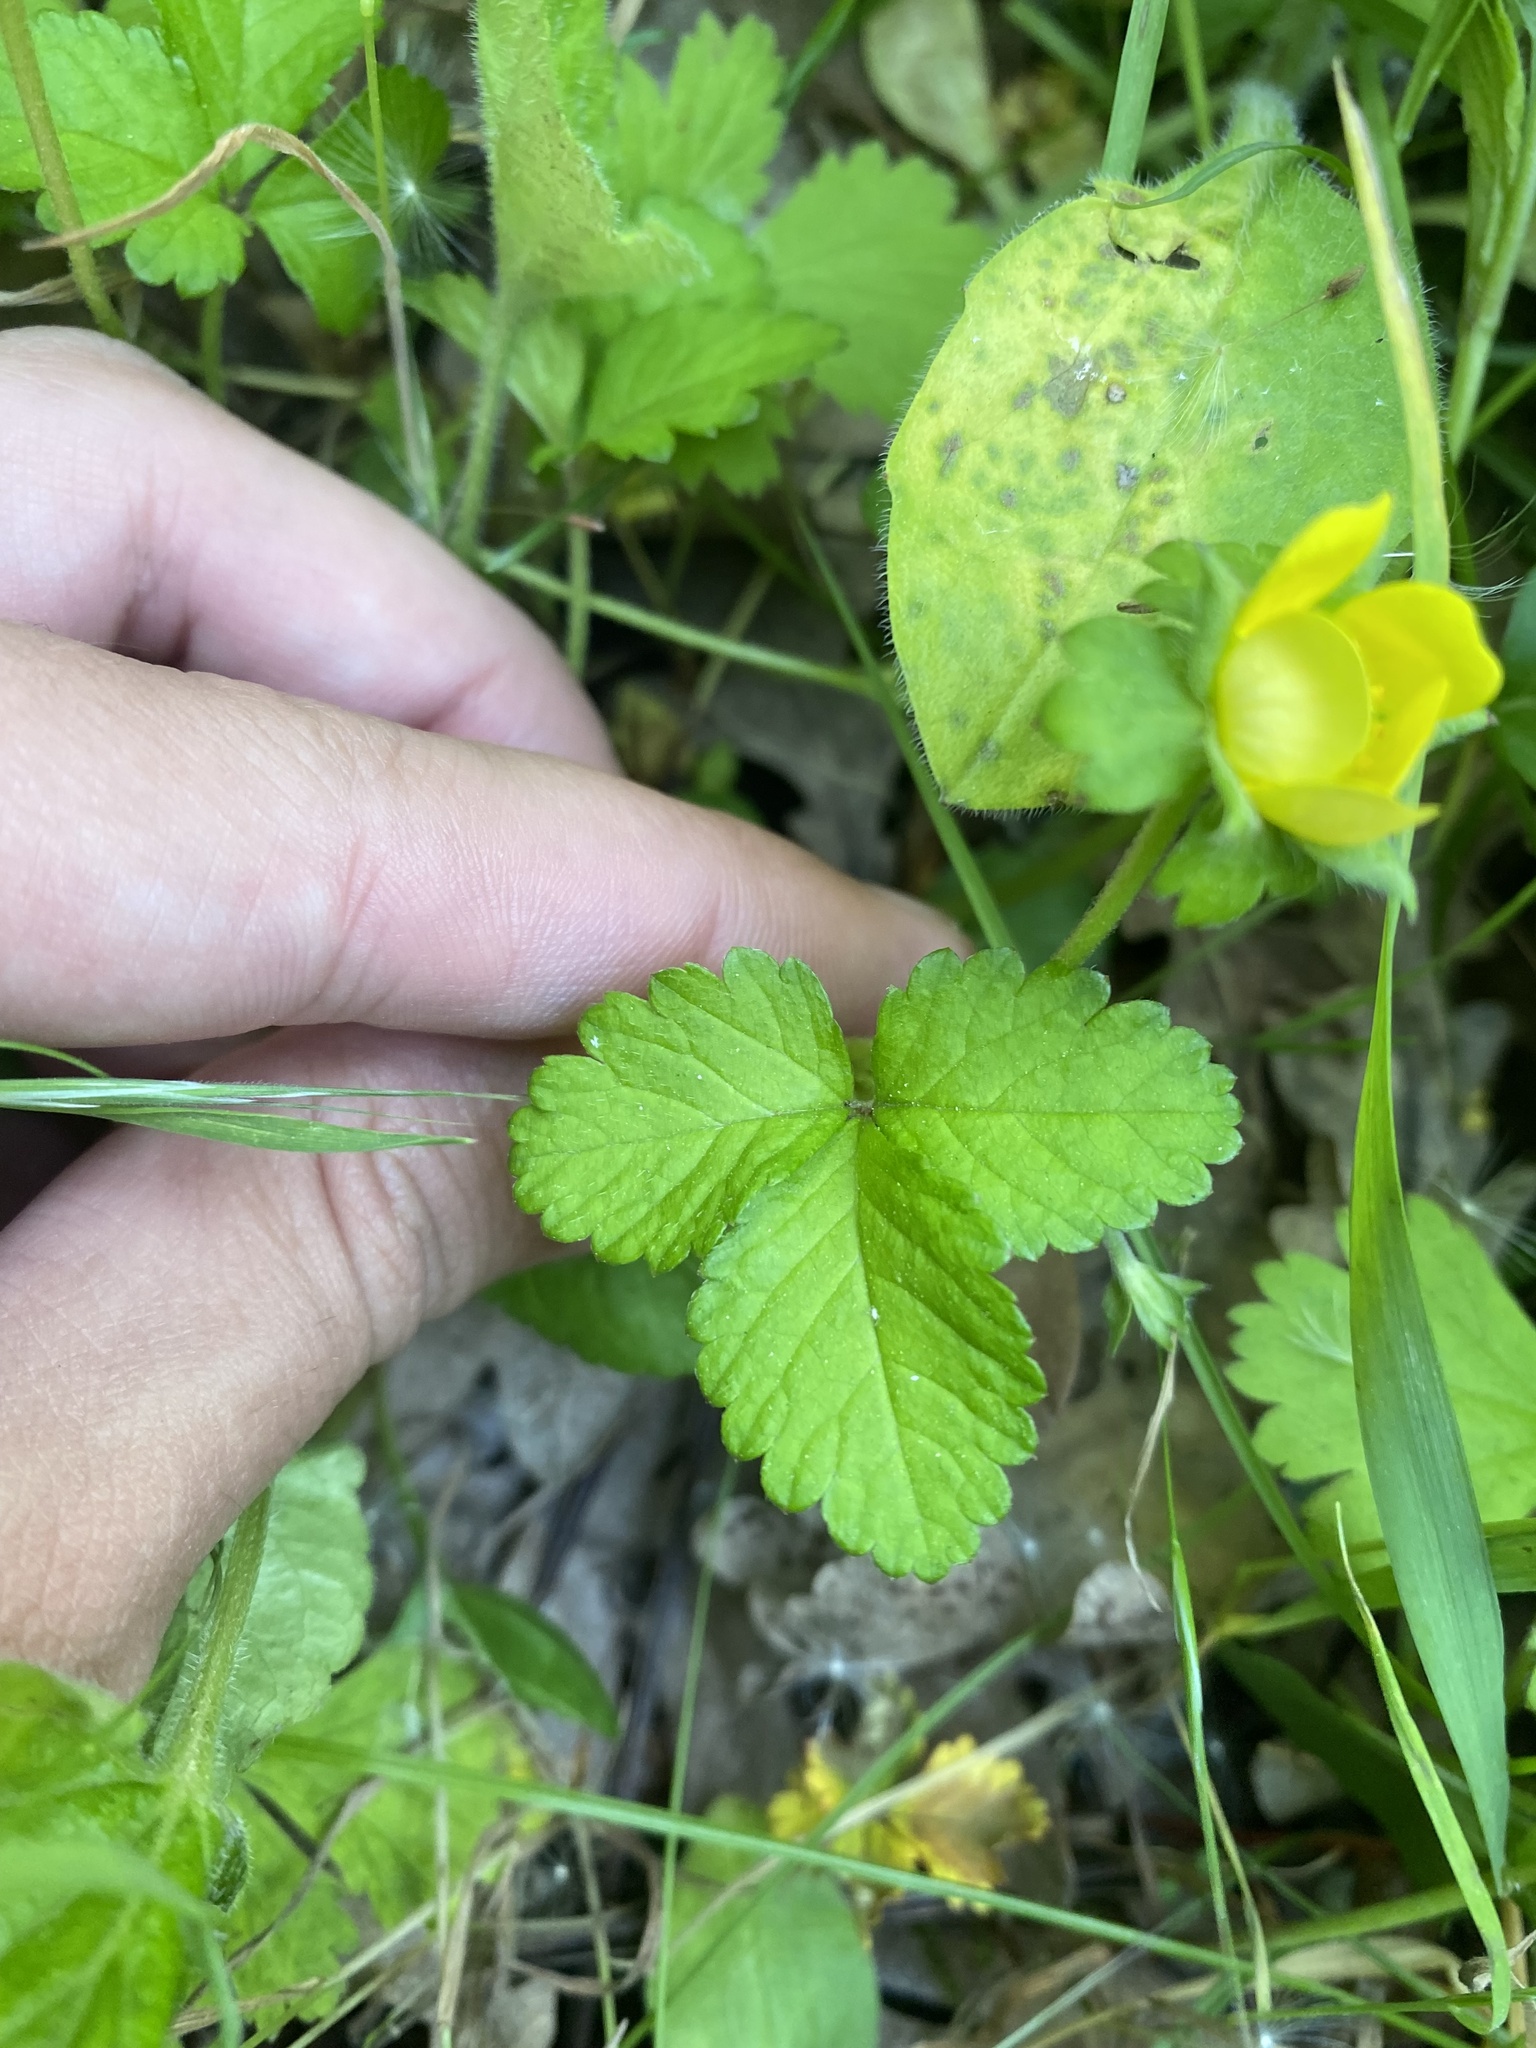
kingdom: Plantae
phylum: Tracheophyta
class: Magnoliopsida
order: Rosales
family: Rosaceae
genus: Potentilla
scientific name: Potentilla indica
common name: Yellow-flowered strawberry
